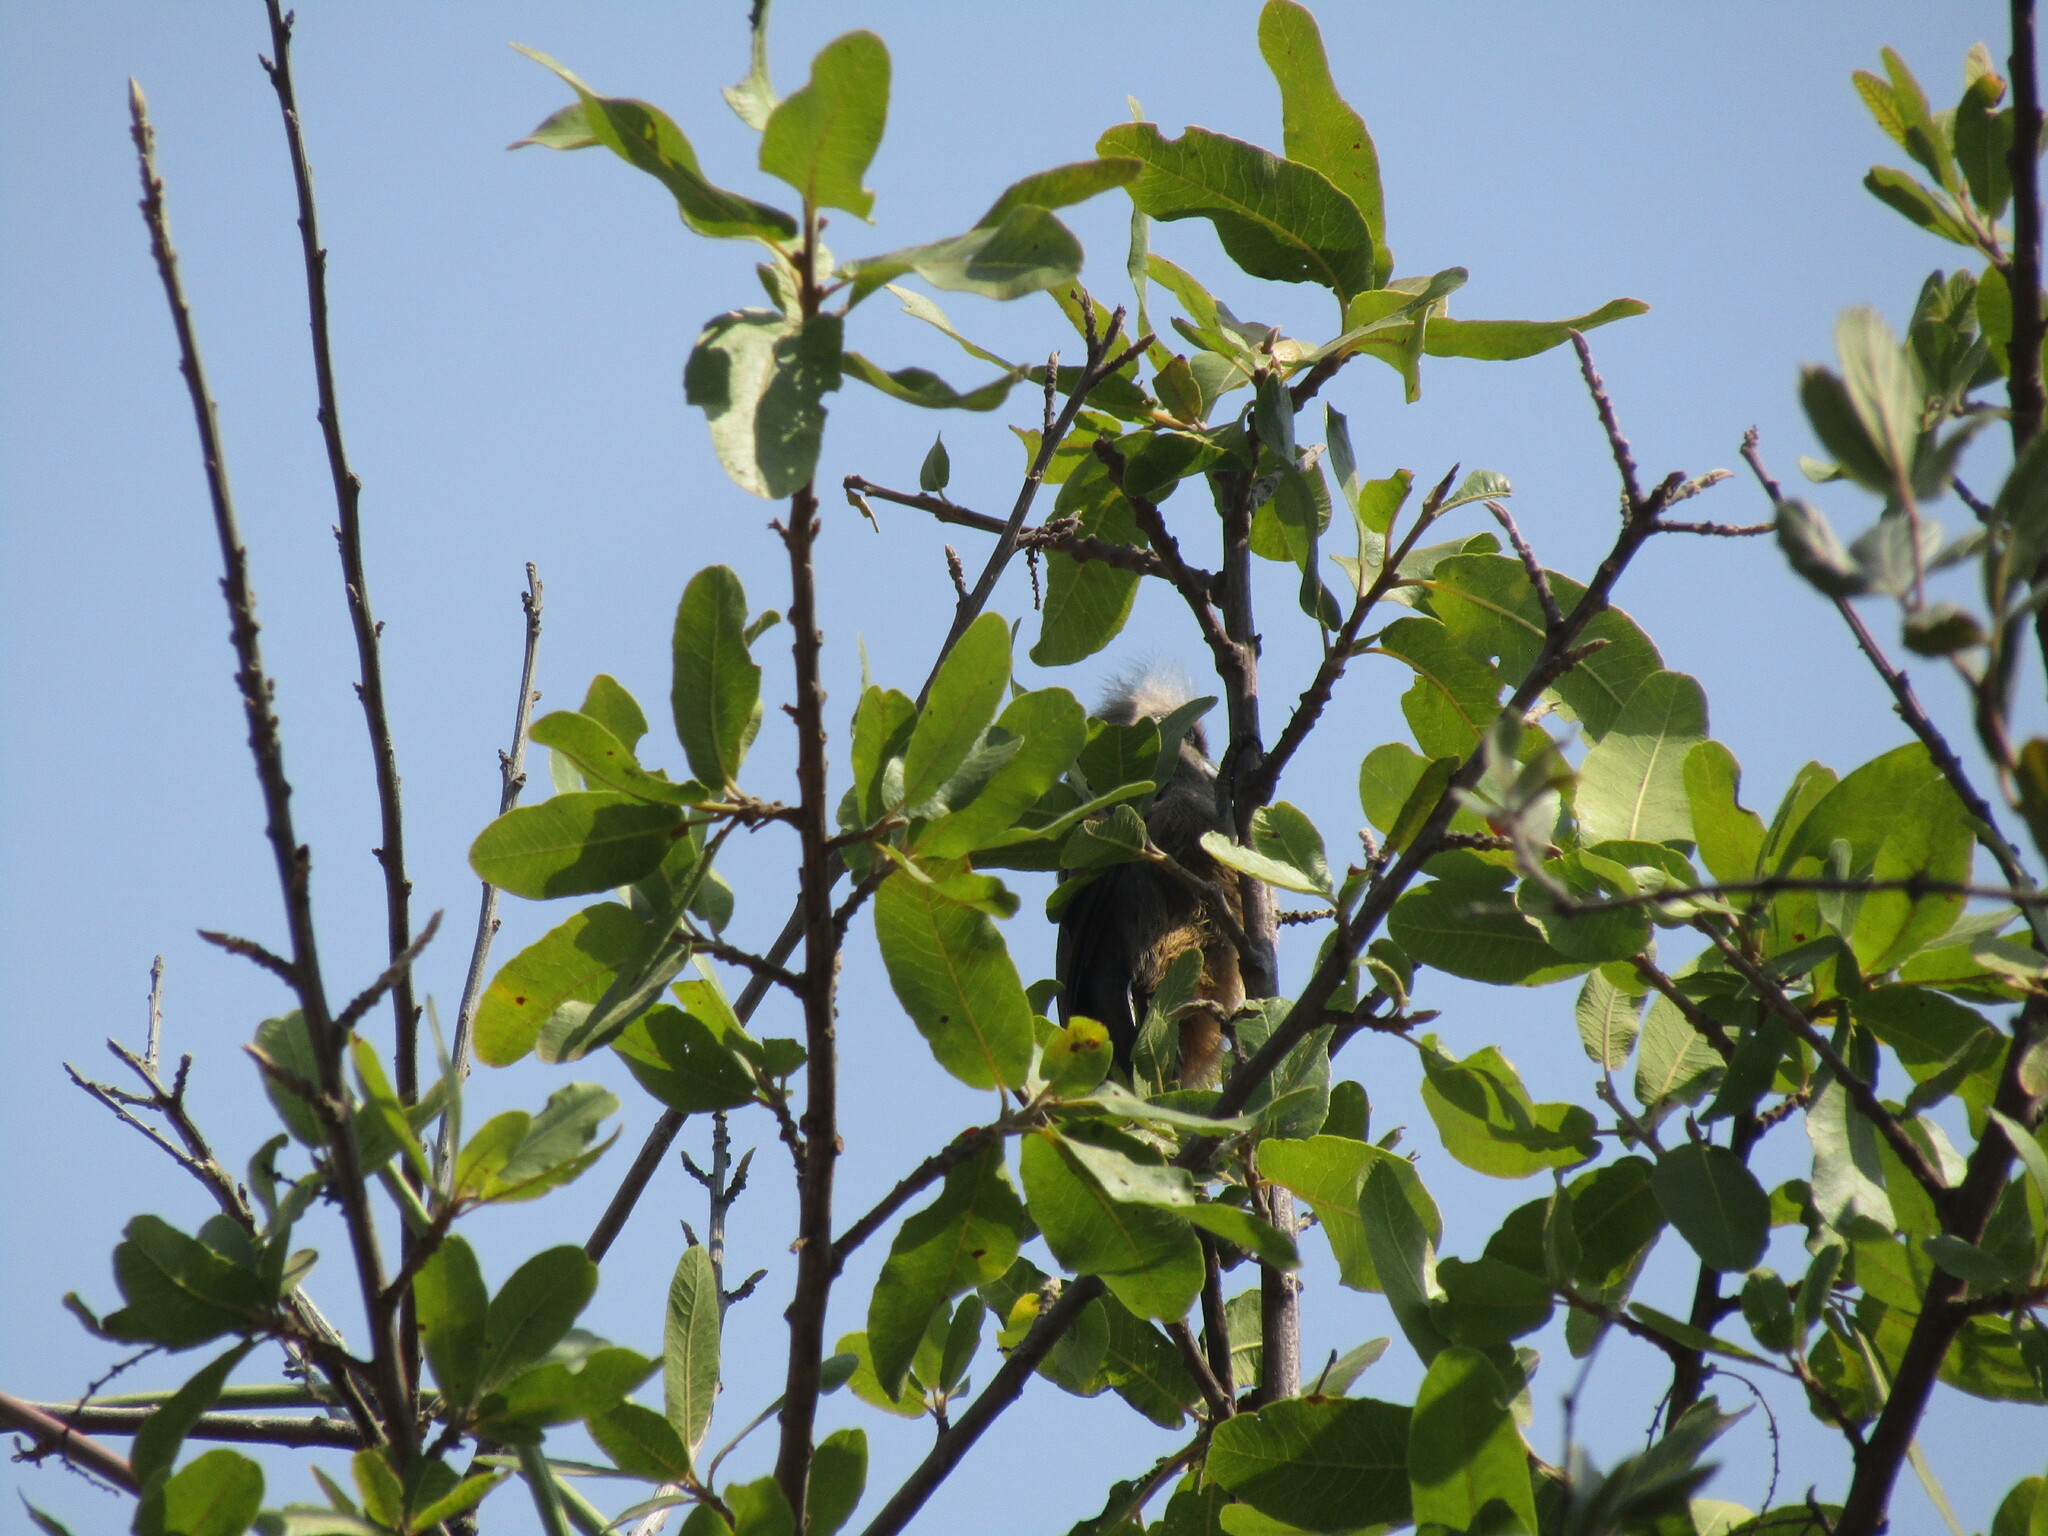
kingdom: Animalia
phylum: Chordata
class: Aves
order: Coliiformes
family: Coliidae
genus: Colius
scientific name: Colius striatus
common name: Speckled mousebird
